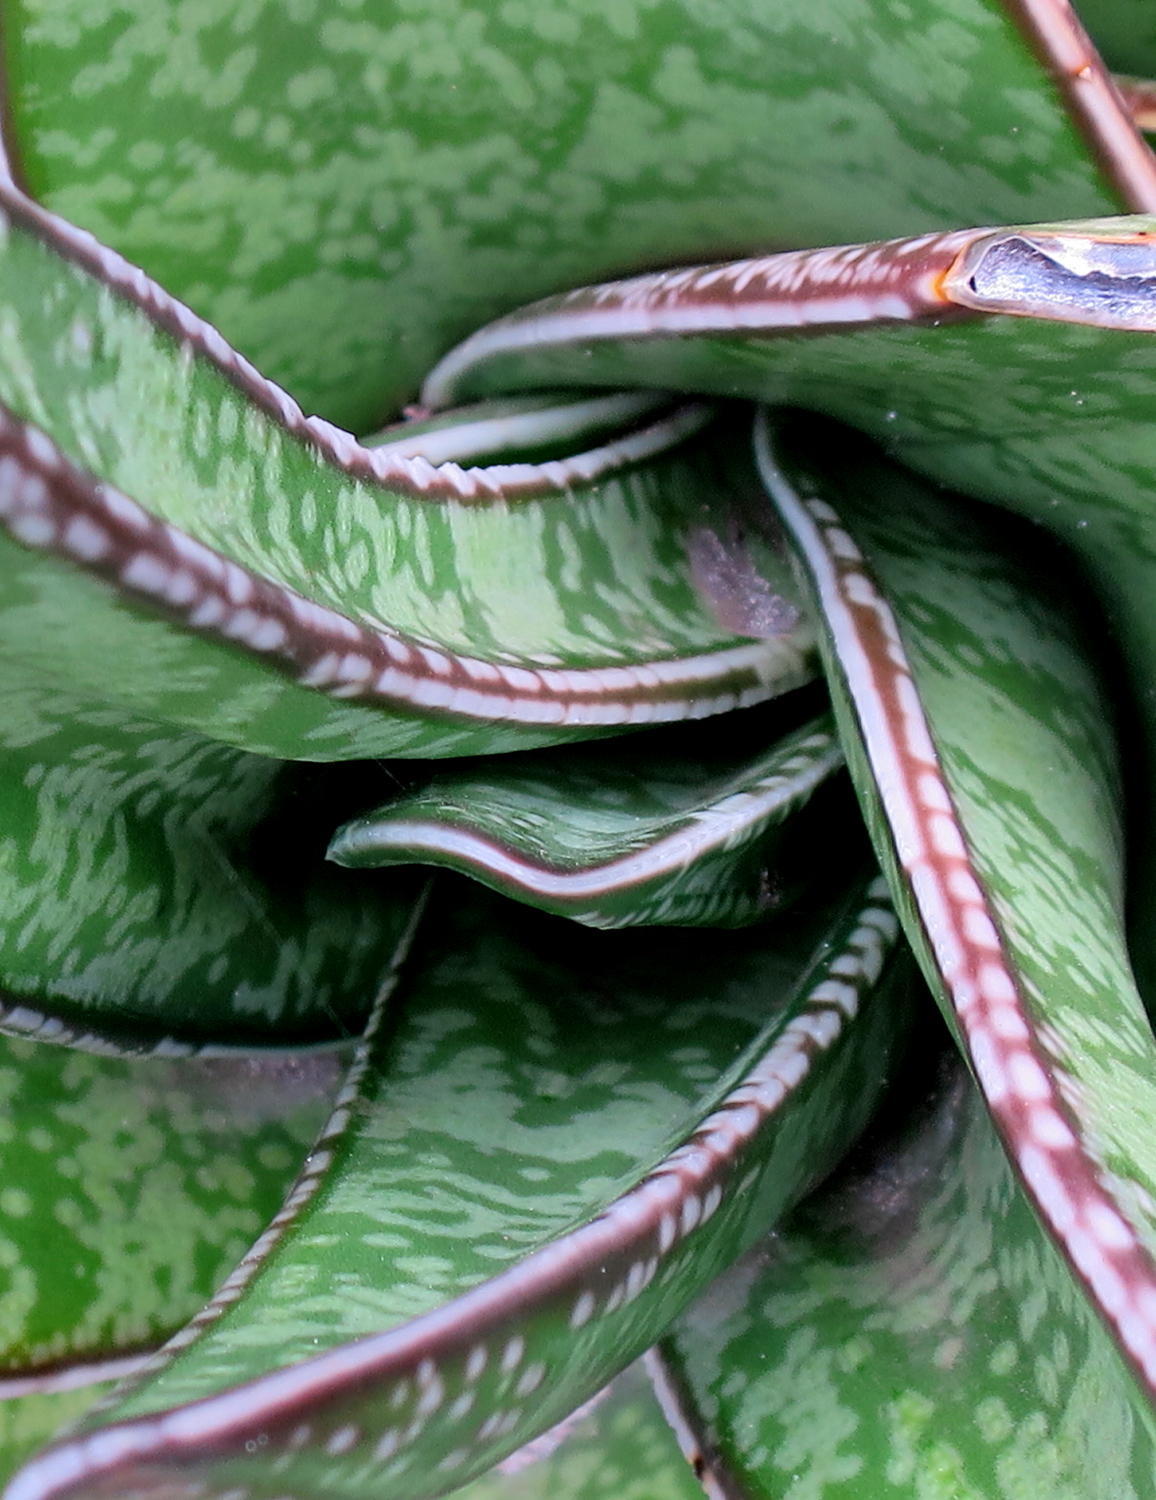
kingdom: Plantae
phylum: Tracheophyta
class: Liliopsida
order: Asparagales
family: Asphodelaceae
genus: Gasteria
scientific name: Gasteria acinacifolia
